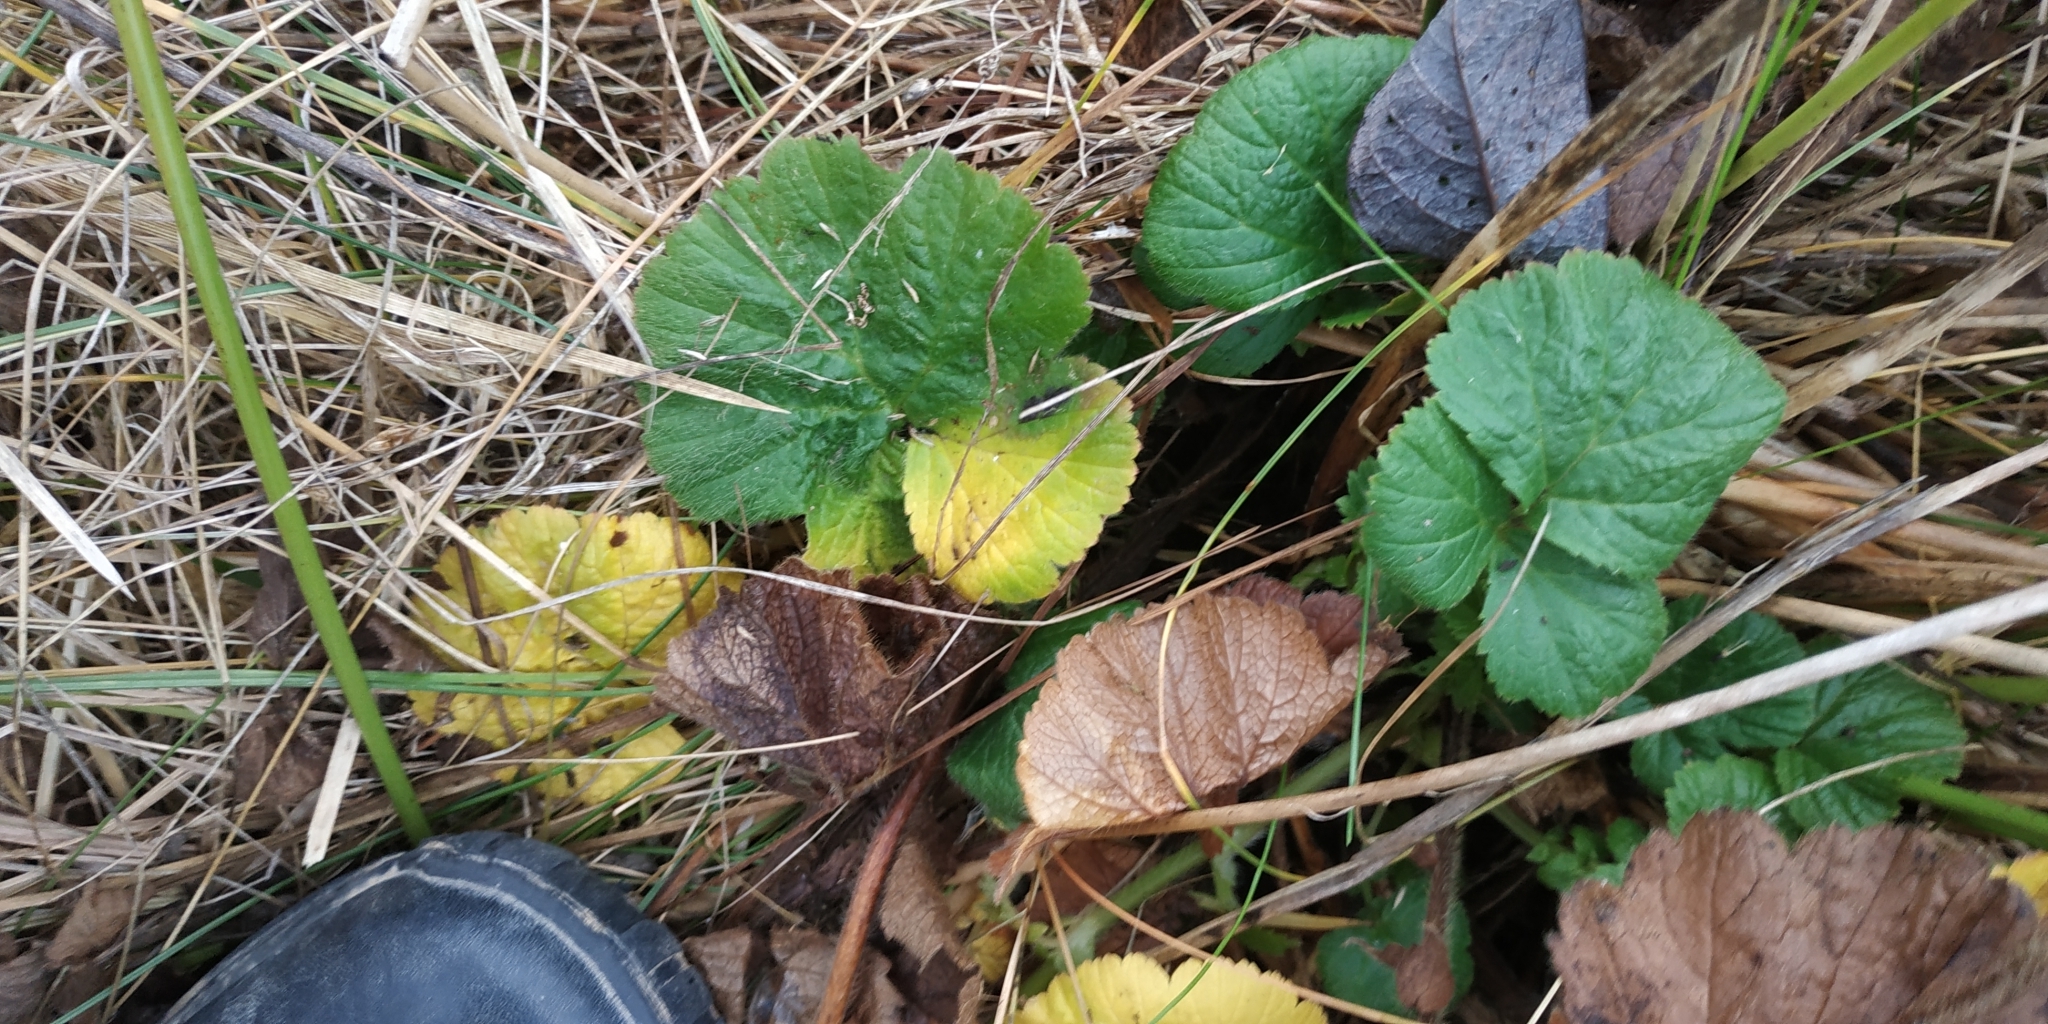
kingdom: Plantae
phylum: Tracheophyta
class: Magnoliopsida
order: Rosales
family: Rosaceae
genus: Geum
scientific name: Geum rivale
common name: Water avens
